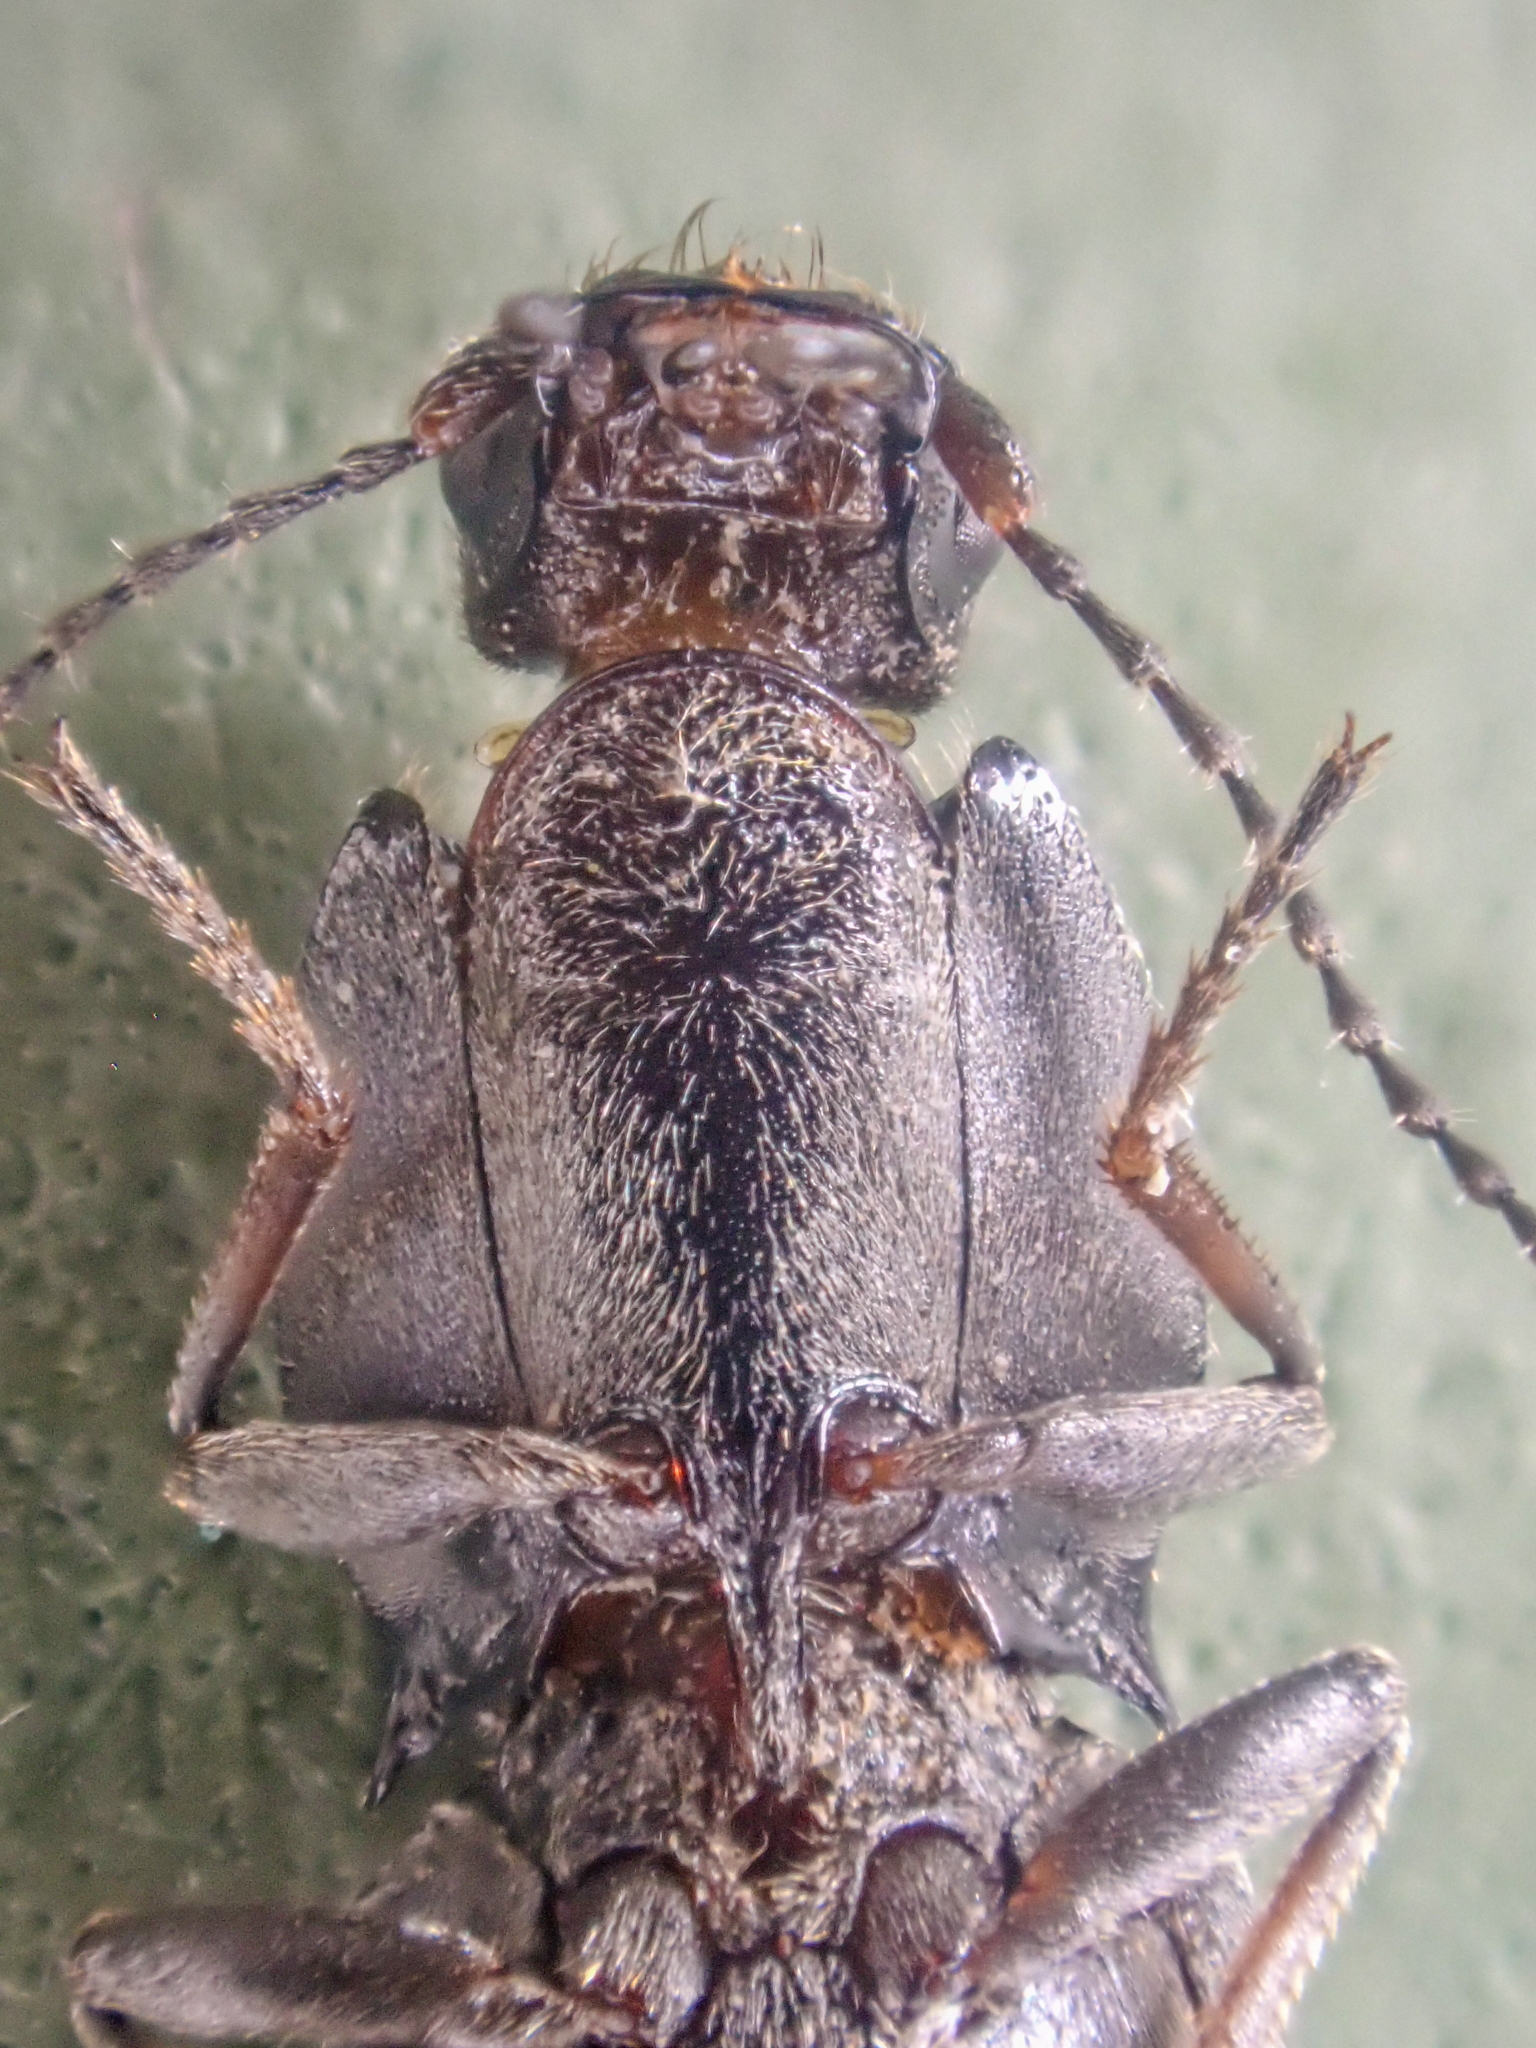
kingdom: Animalia
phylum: Arthropoda
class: Insecta
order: Coleoptera
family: Elateridae
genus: Ligmargus
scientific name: Ligmargus funebris
